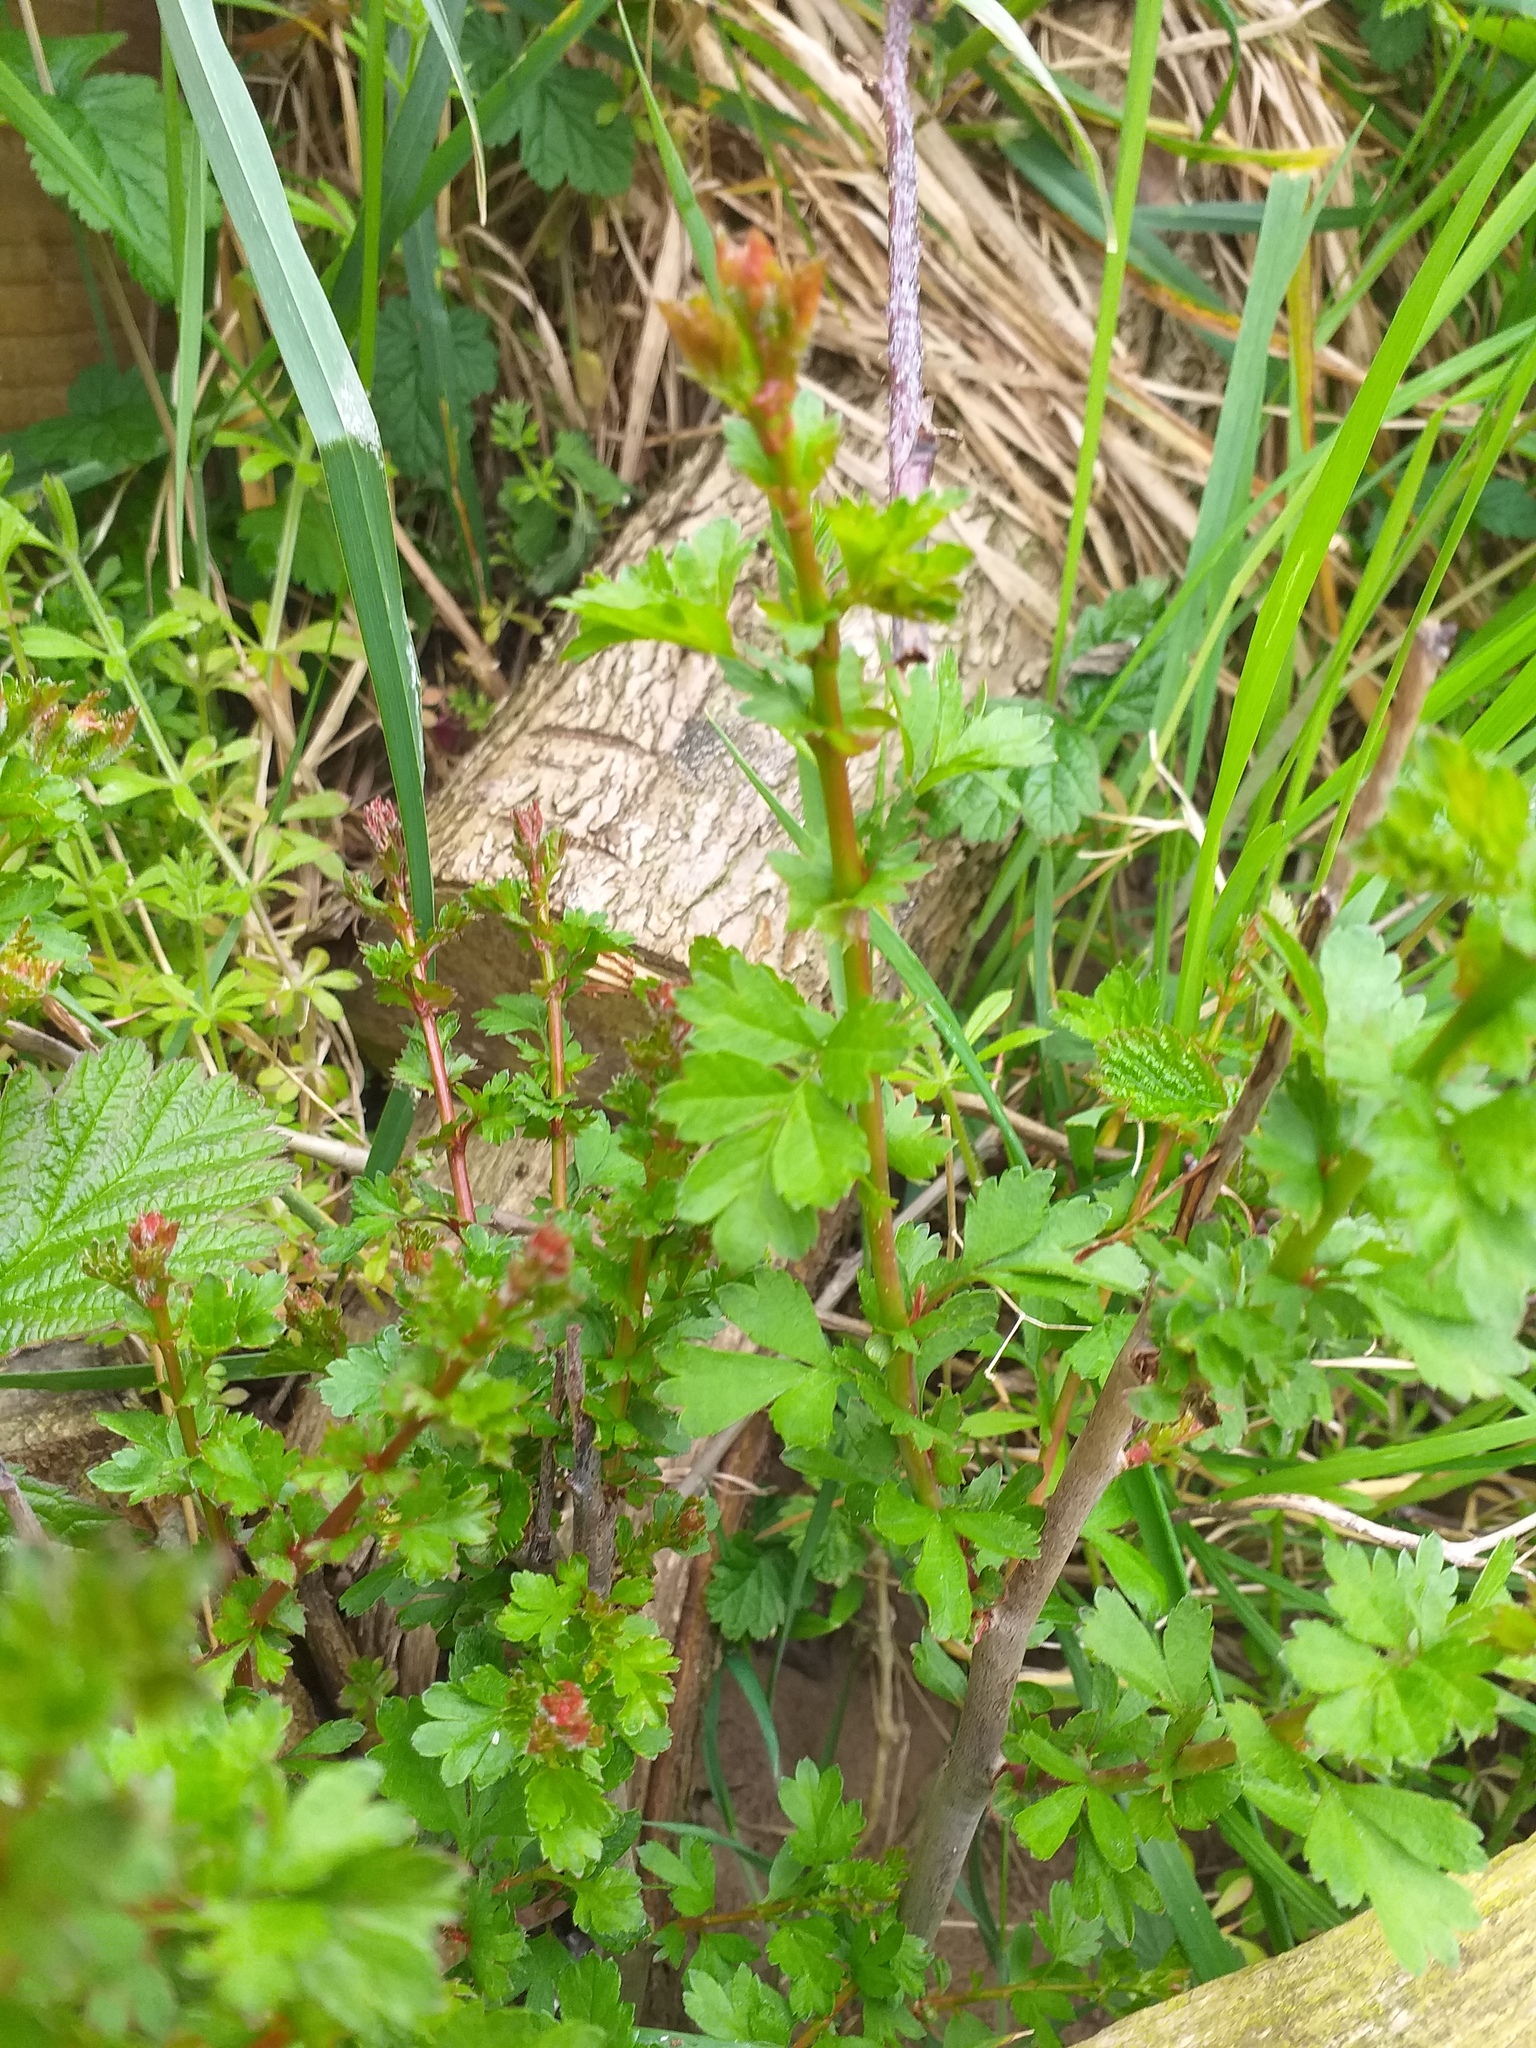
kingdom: Plantae
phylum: Tracheophyta
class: Magnoliopsida
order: Rosales
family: Rosaceae
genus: Crataegus
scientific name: Crataegus monogyna
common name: Hawthorn
